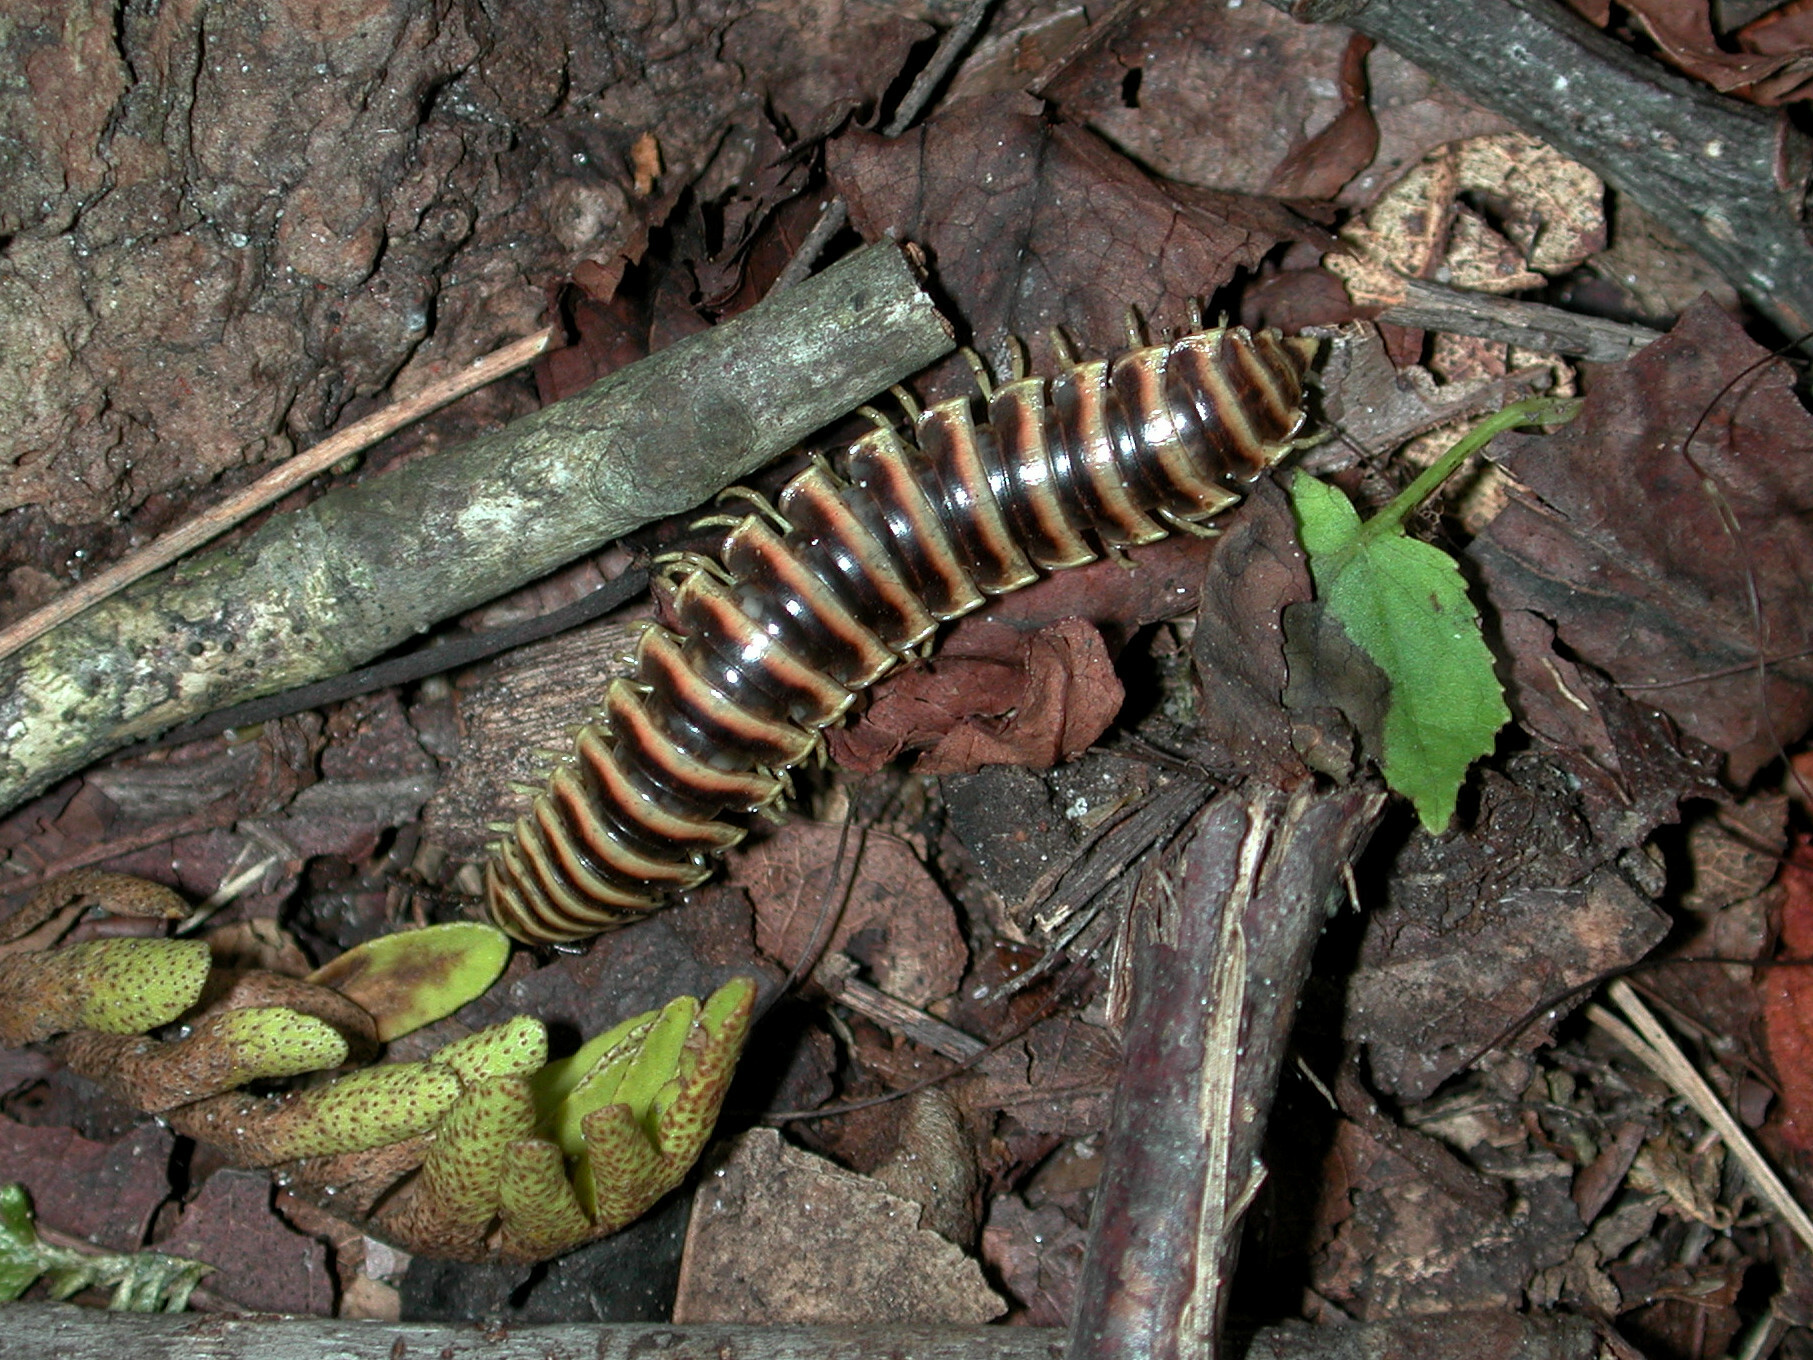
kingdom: Animalia
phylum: Arthropoda
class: Diplopoda
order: Polydesmida
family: Xystodesmidae
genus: Apheloria
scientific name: Apheloria virginiensis
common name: Black-and-gold flat millipede
